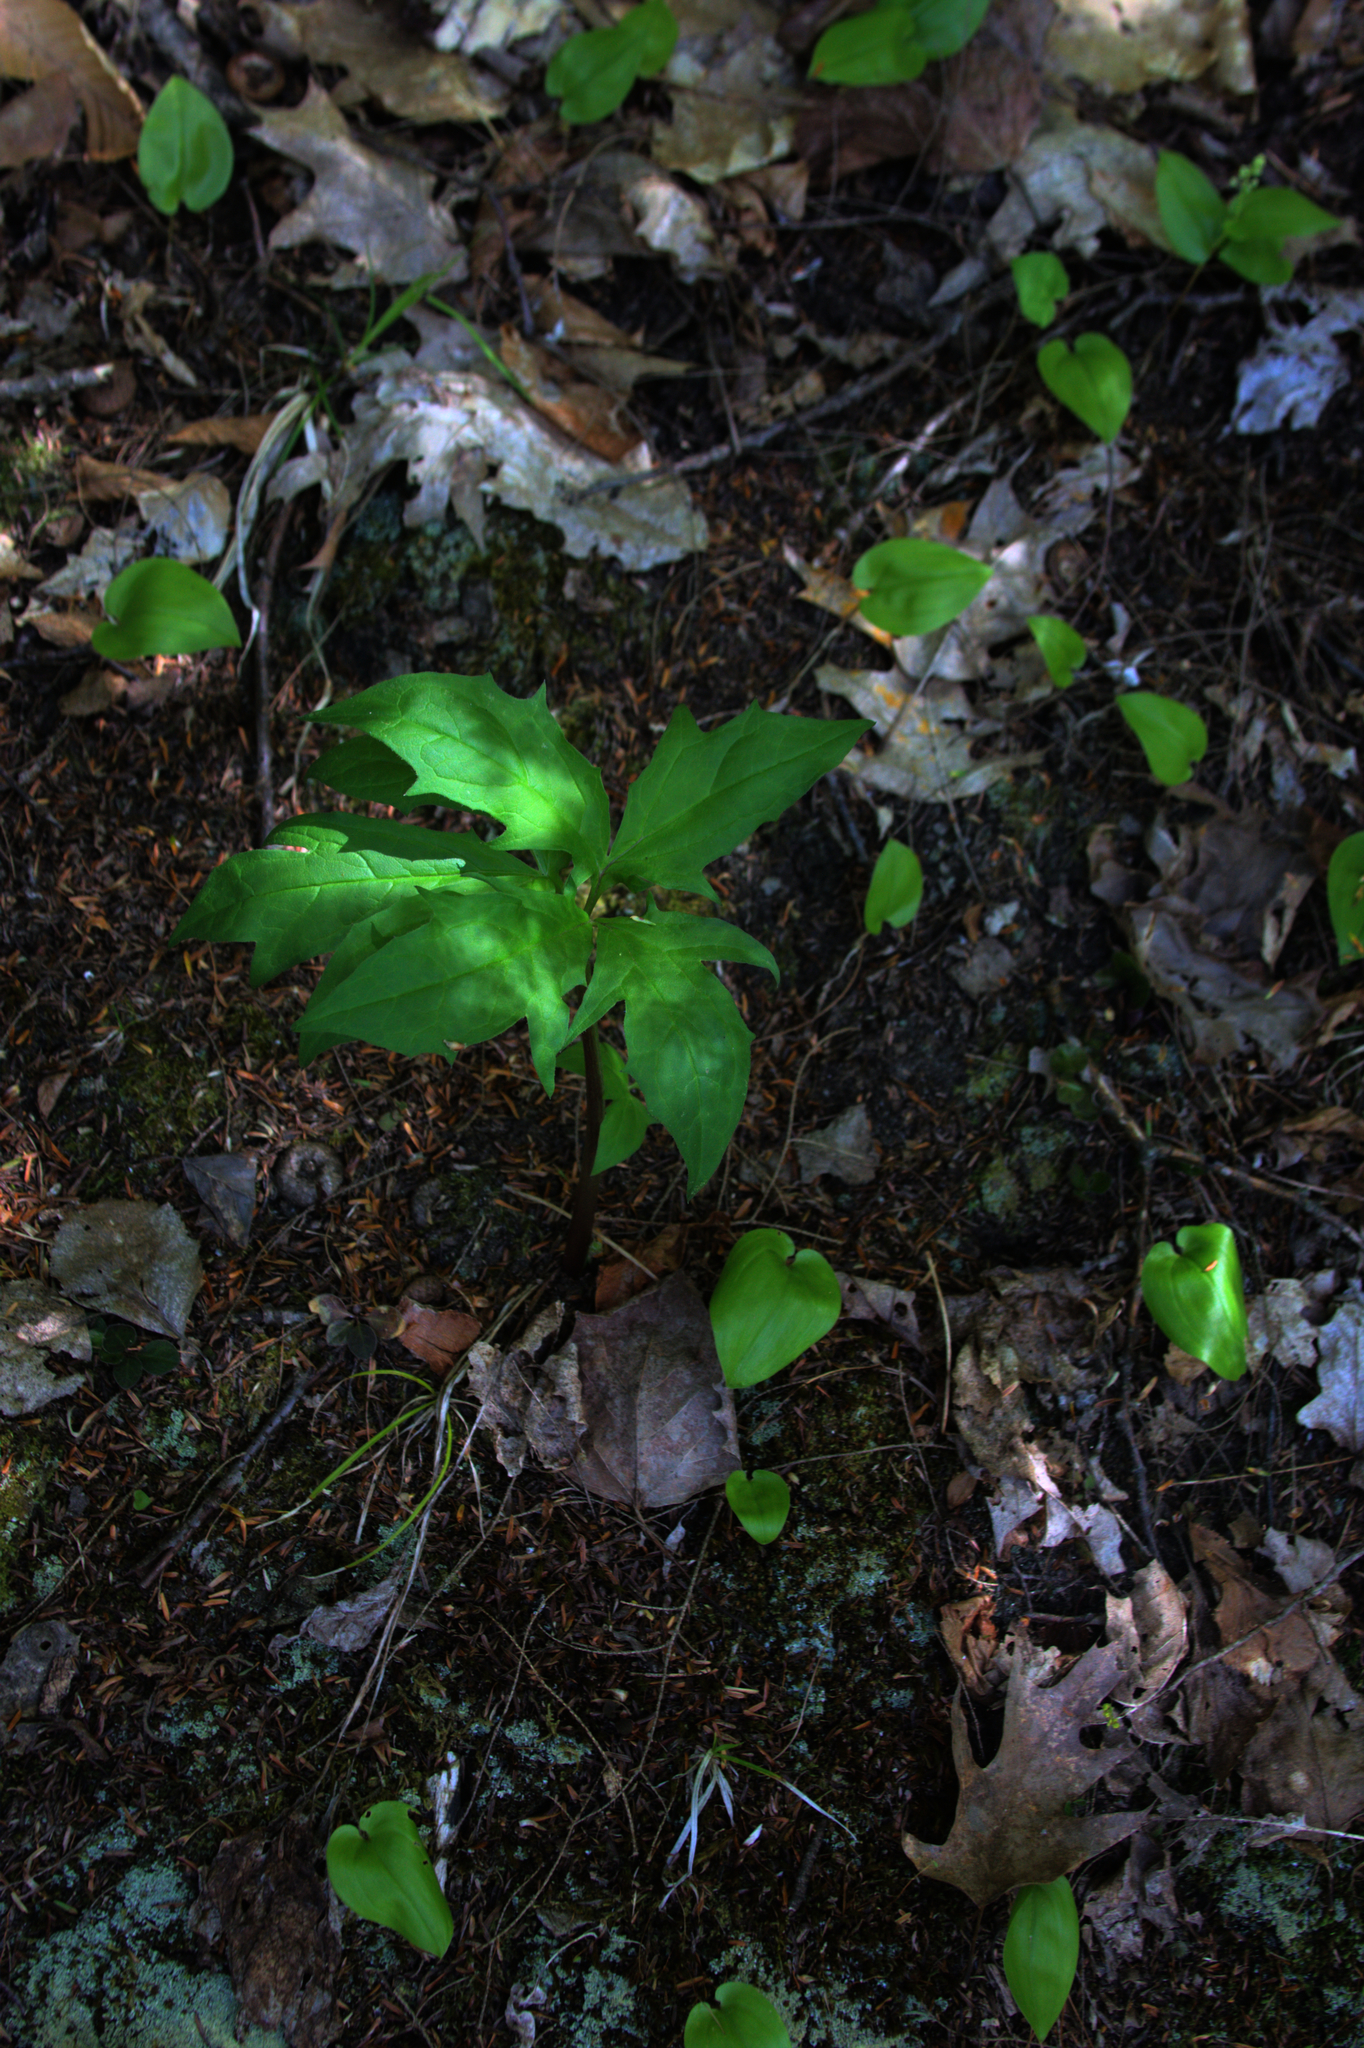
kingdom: Plantae
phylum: Tracheophyta
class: Liliopsida
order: Asparagales
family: Asparagaceae
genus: Maianthemum
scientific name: Maianthemum canadense
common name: False lily-of-the-valley
